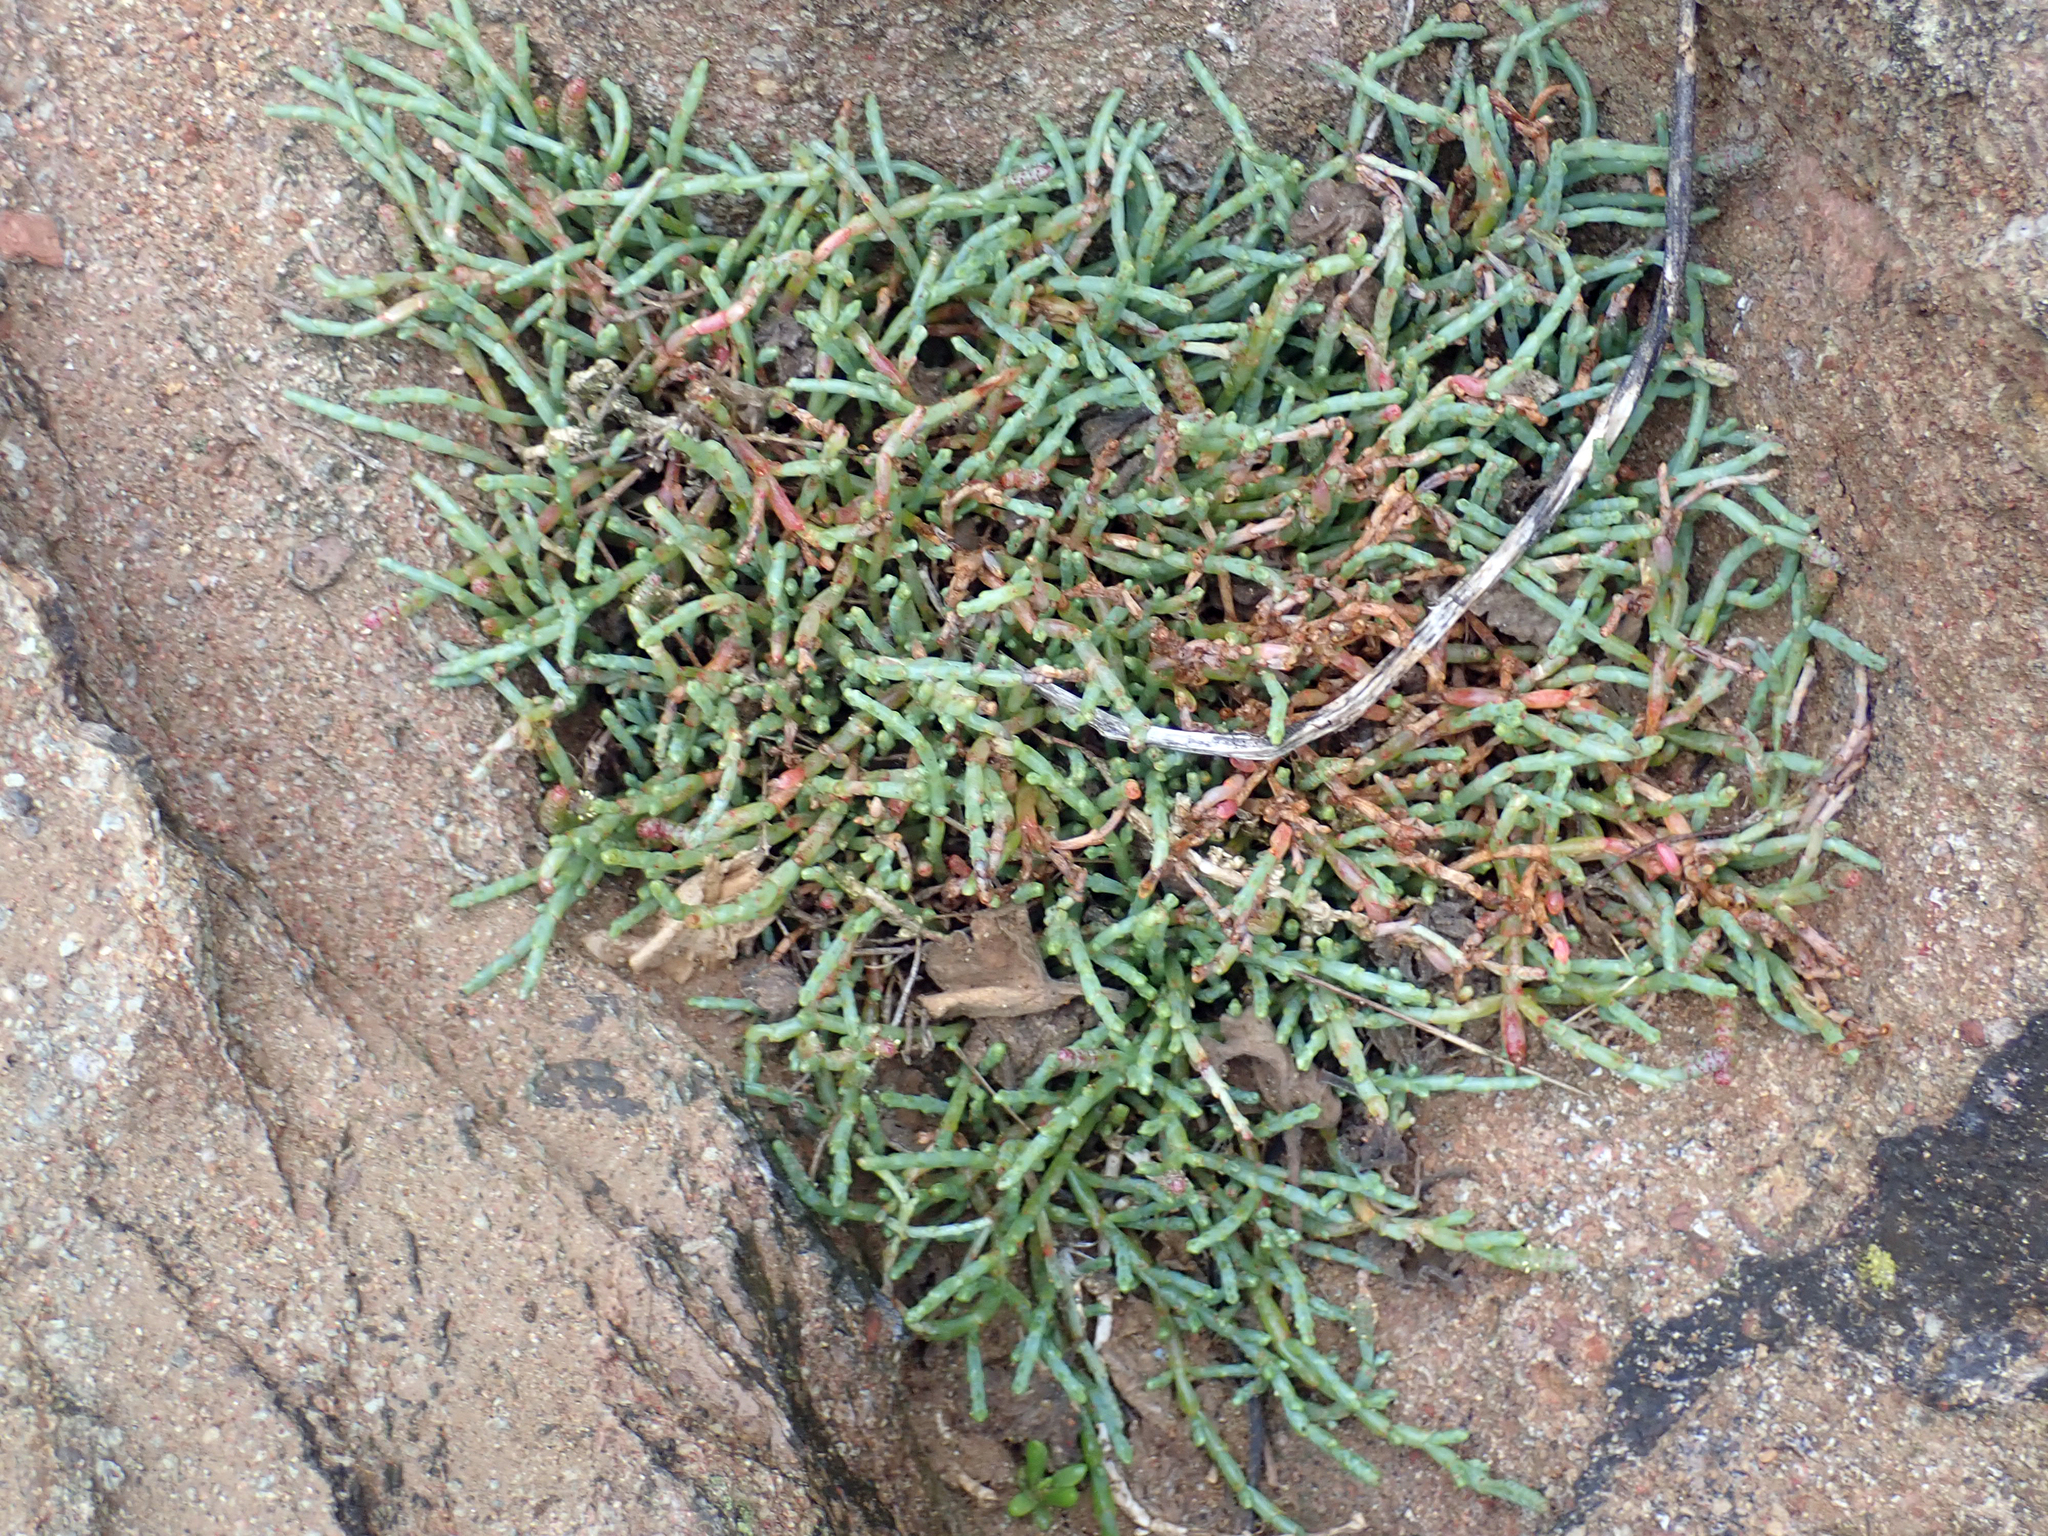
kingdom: Plantae
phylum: Tracheophyta
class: Magnoliopsida
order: Caryophyllales
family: Amaranthaceae
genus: Salicornia
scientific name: Salicornia quinqueflora
